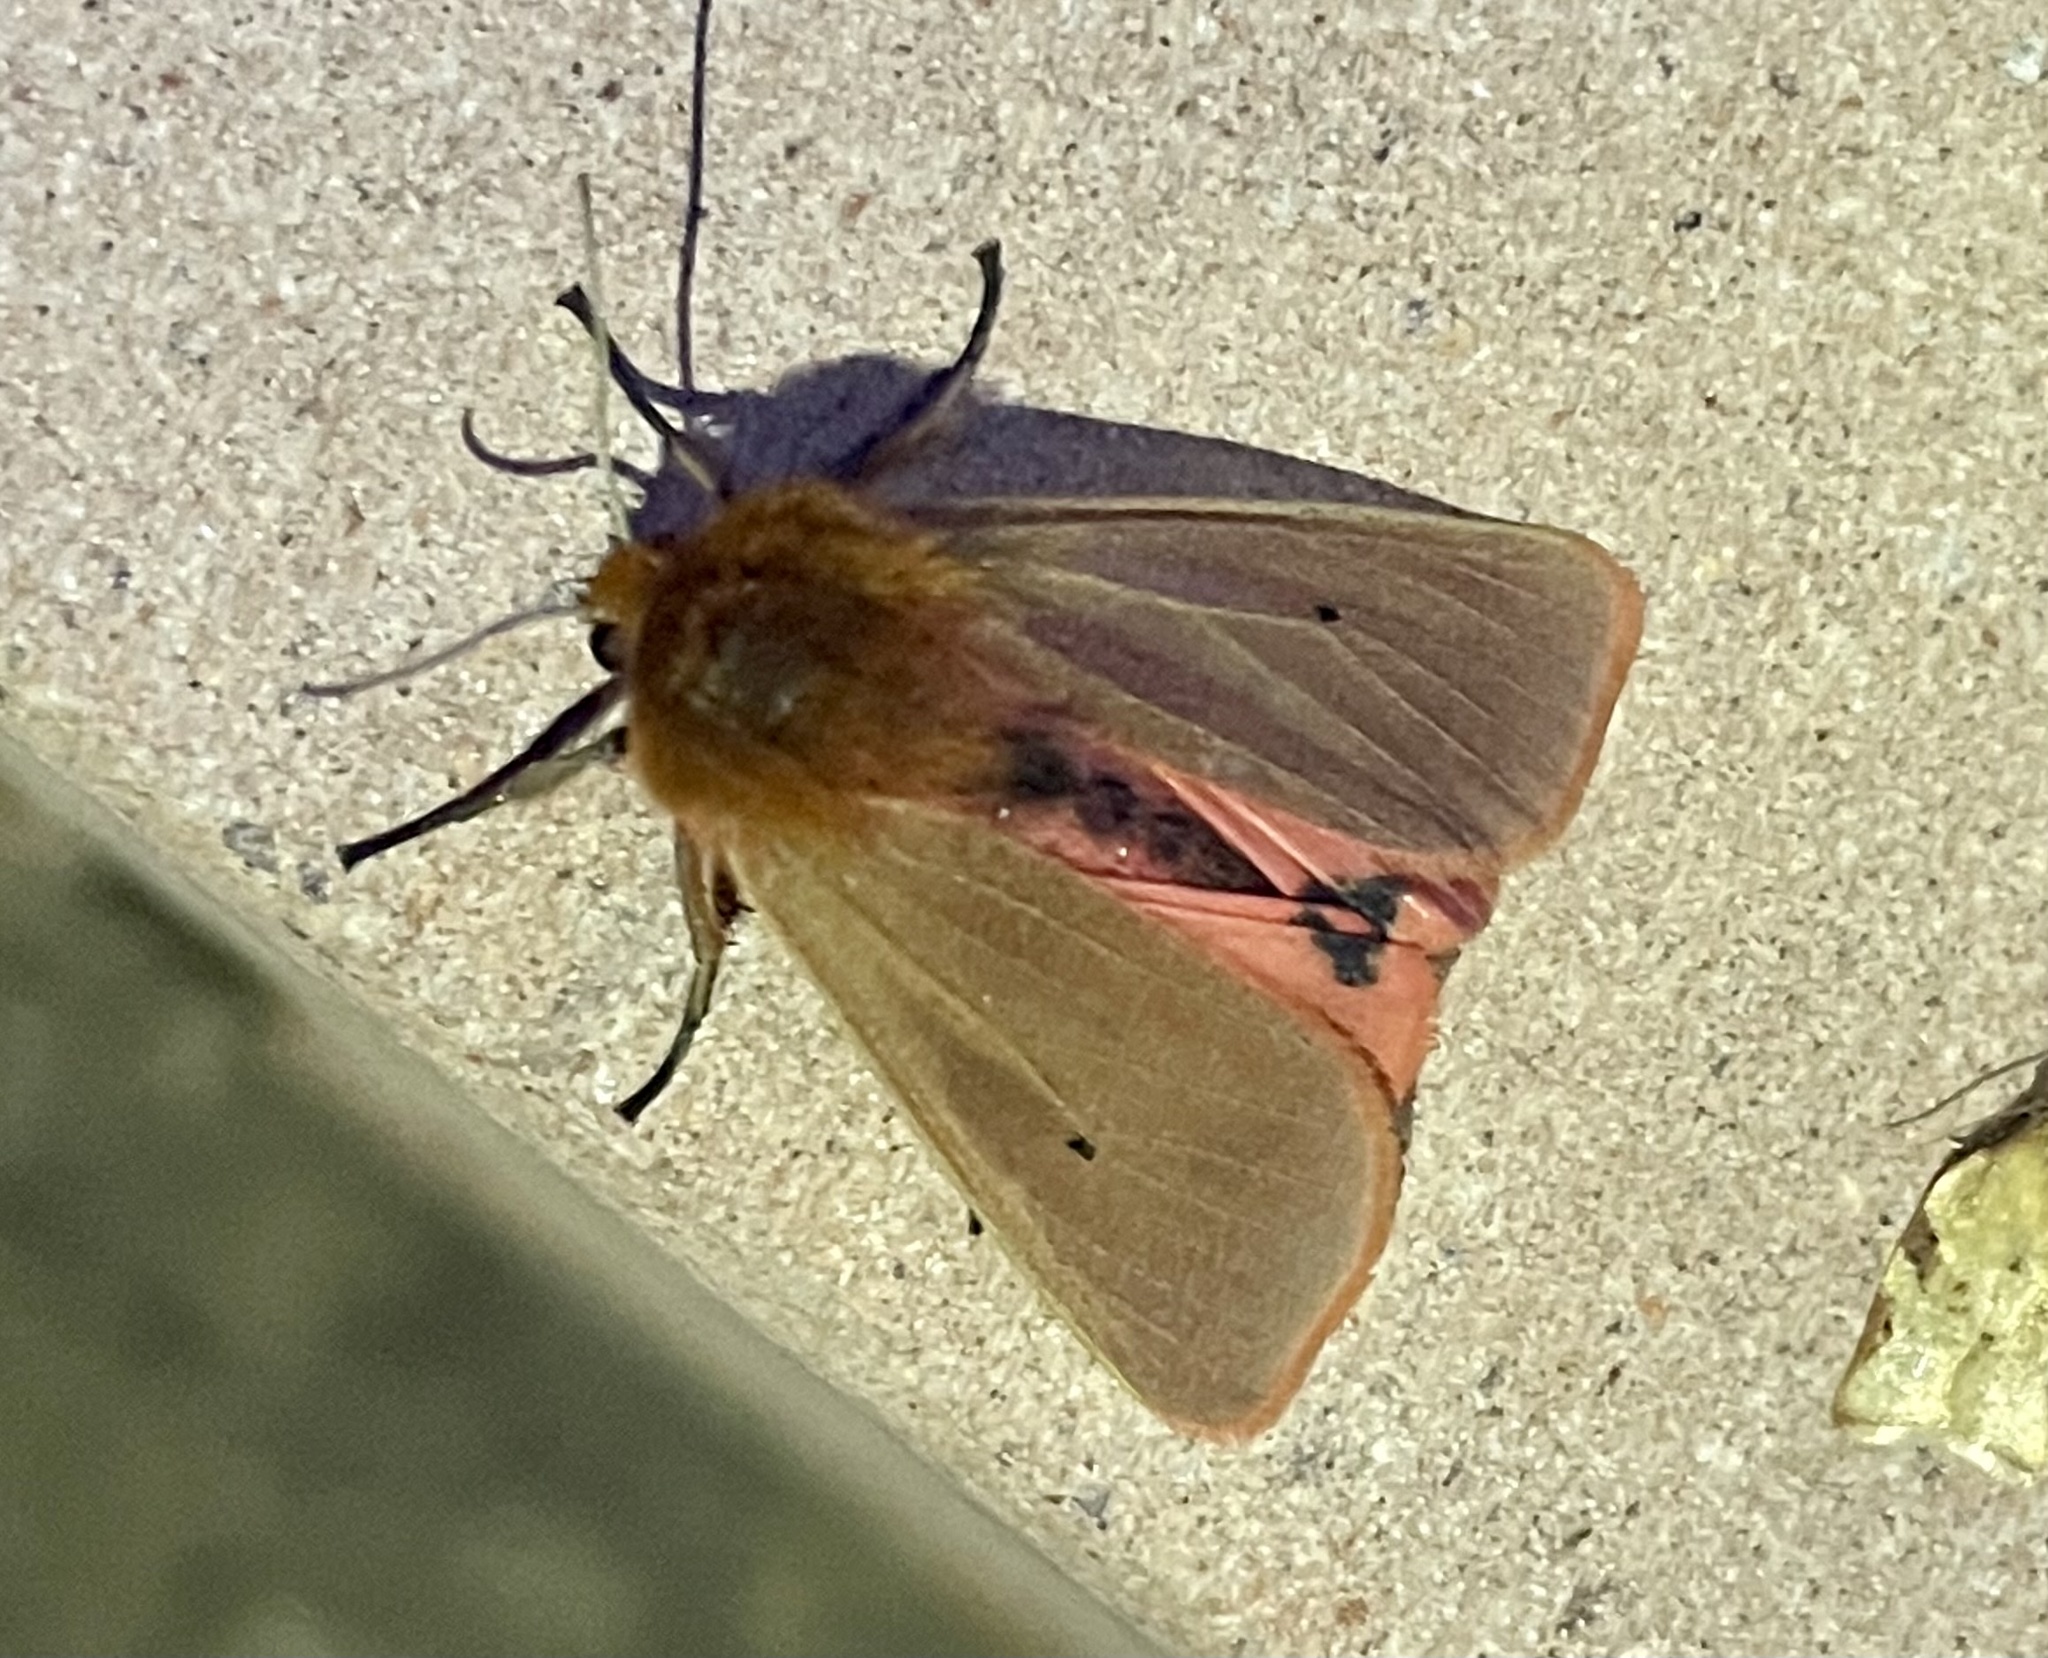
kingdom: Animalia
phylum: Arthropoda
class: Insecta
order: Lepidoptera
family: Erebidae
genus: Phragmatobia
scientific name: Phragmatobia fuliginosa
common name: Ruby tiger
